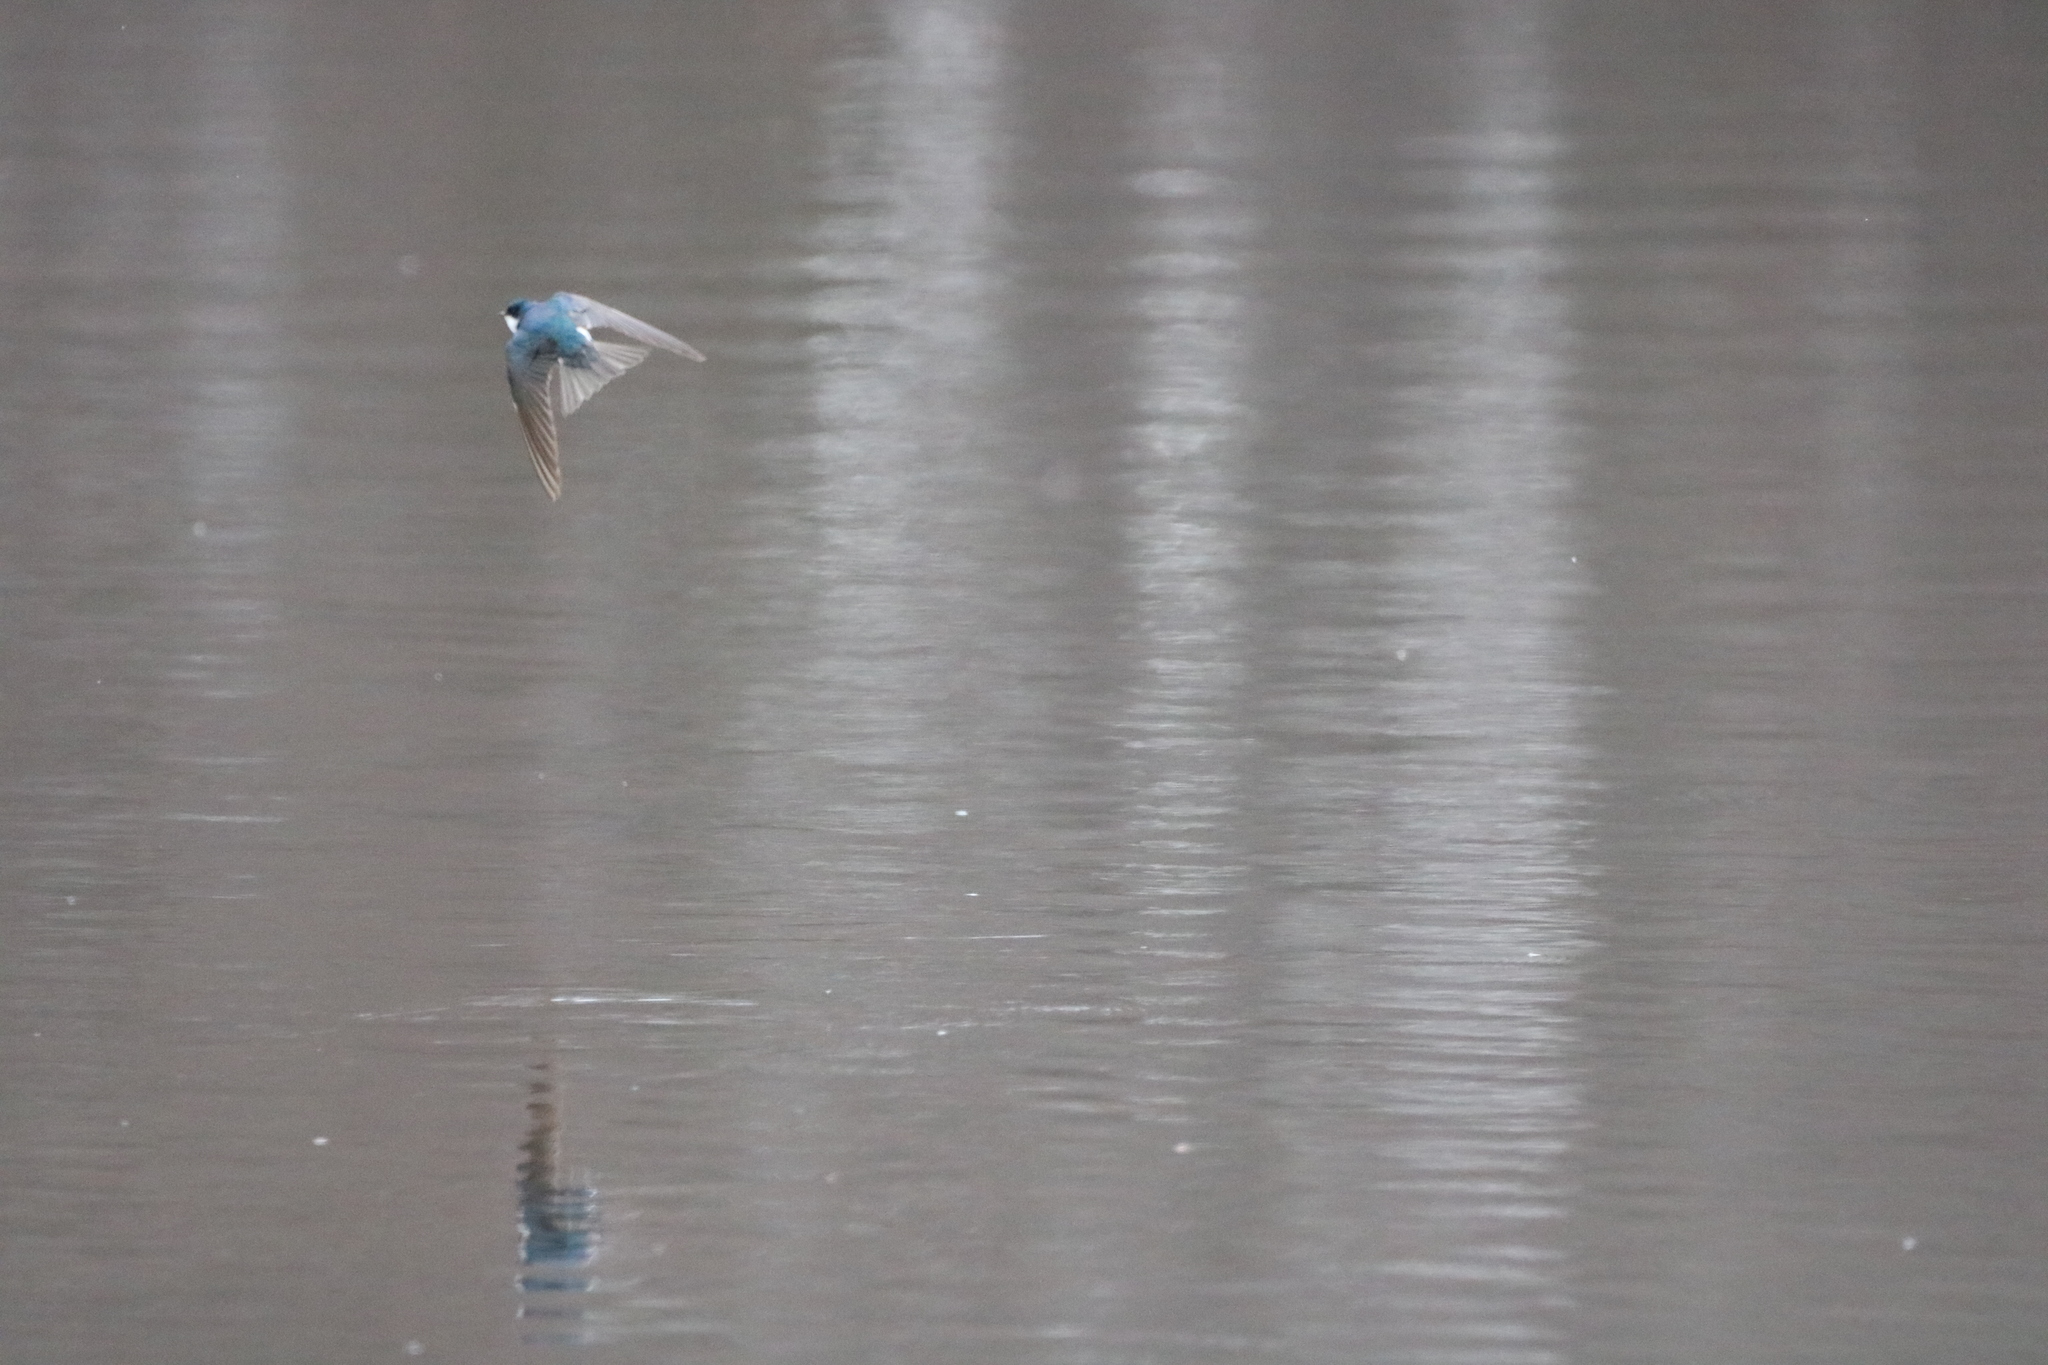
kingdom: Animalia
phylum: Chordata
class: Aves
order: Passeriformes
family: Hirundinidae
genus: Tachycineta
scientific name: Tachycineta bicolor
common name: Tree swallow
